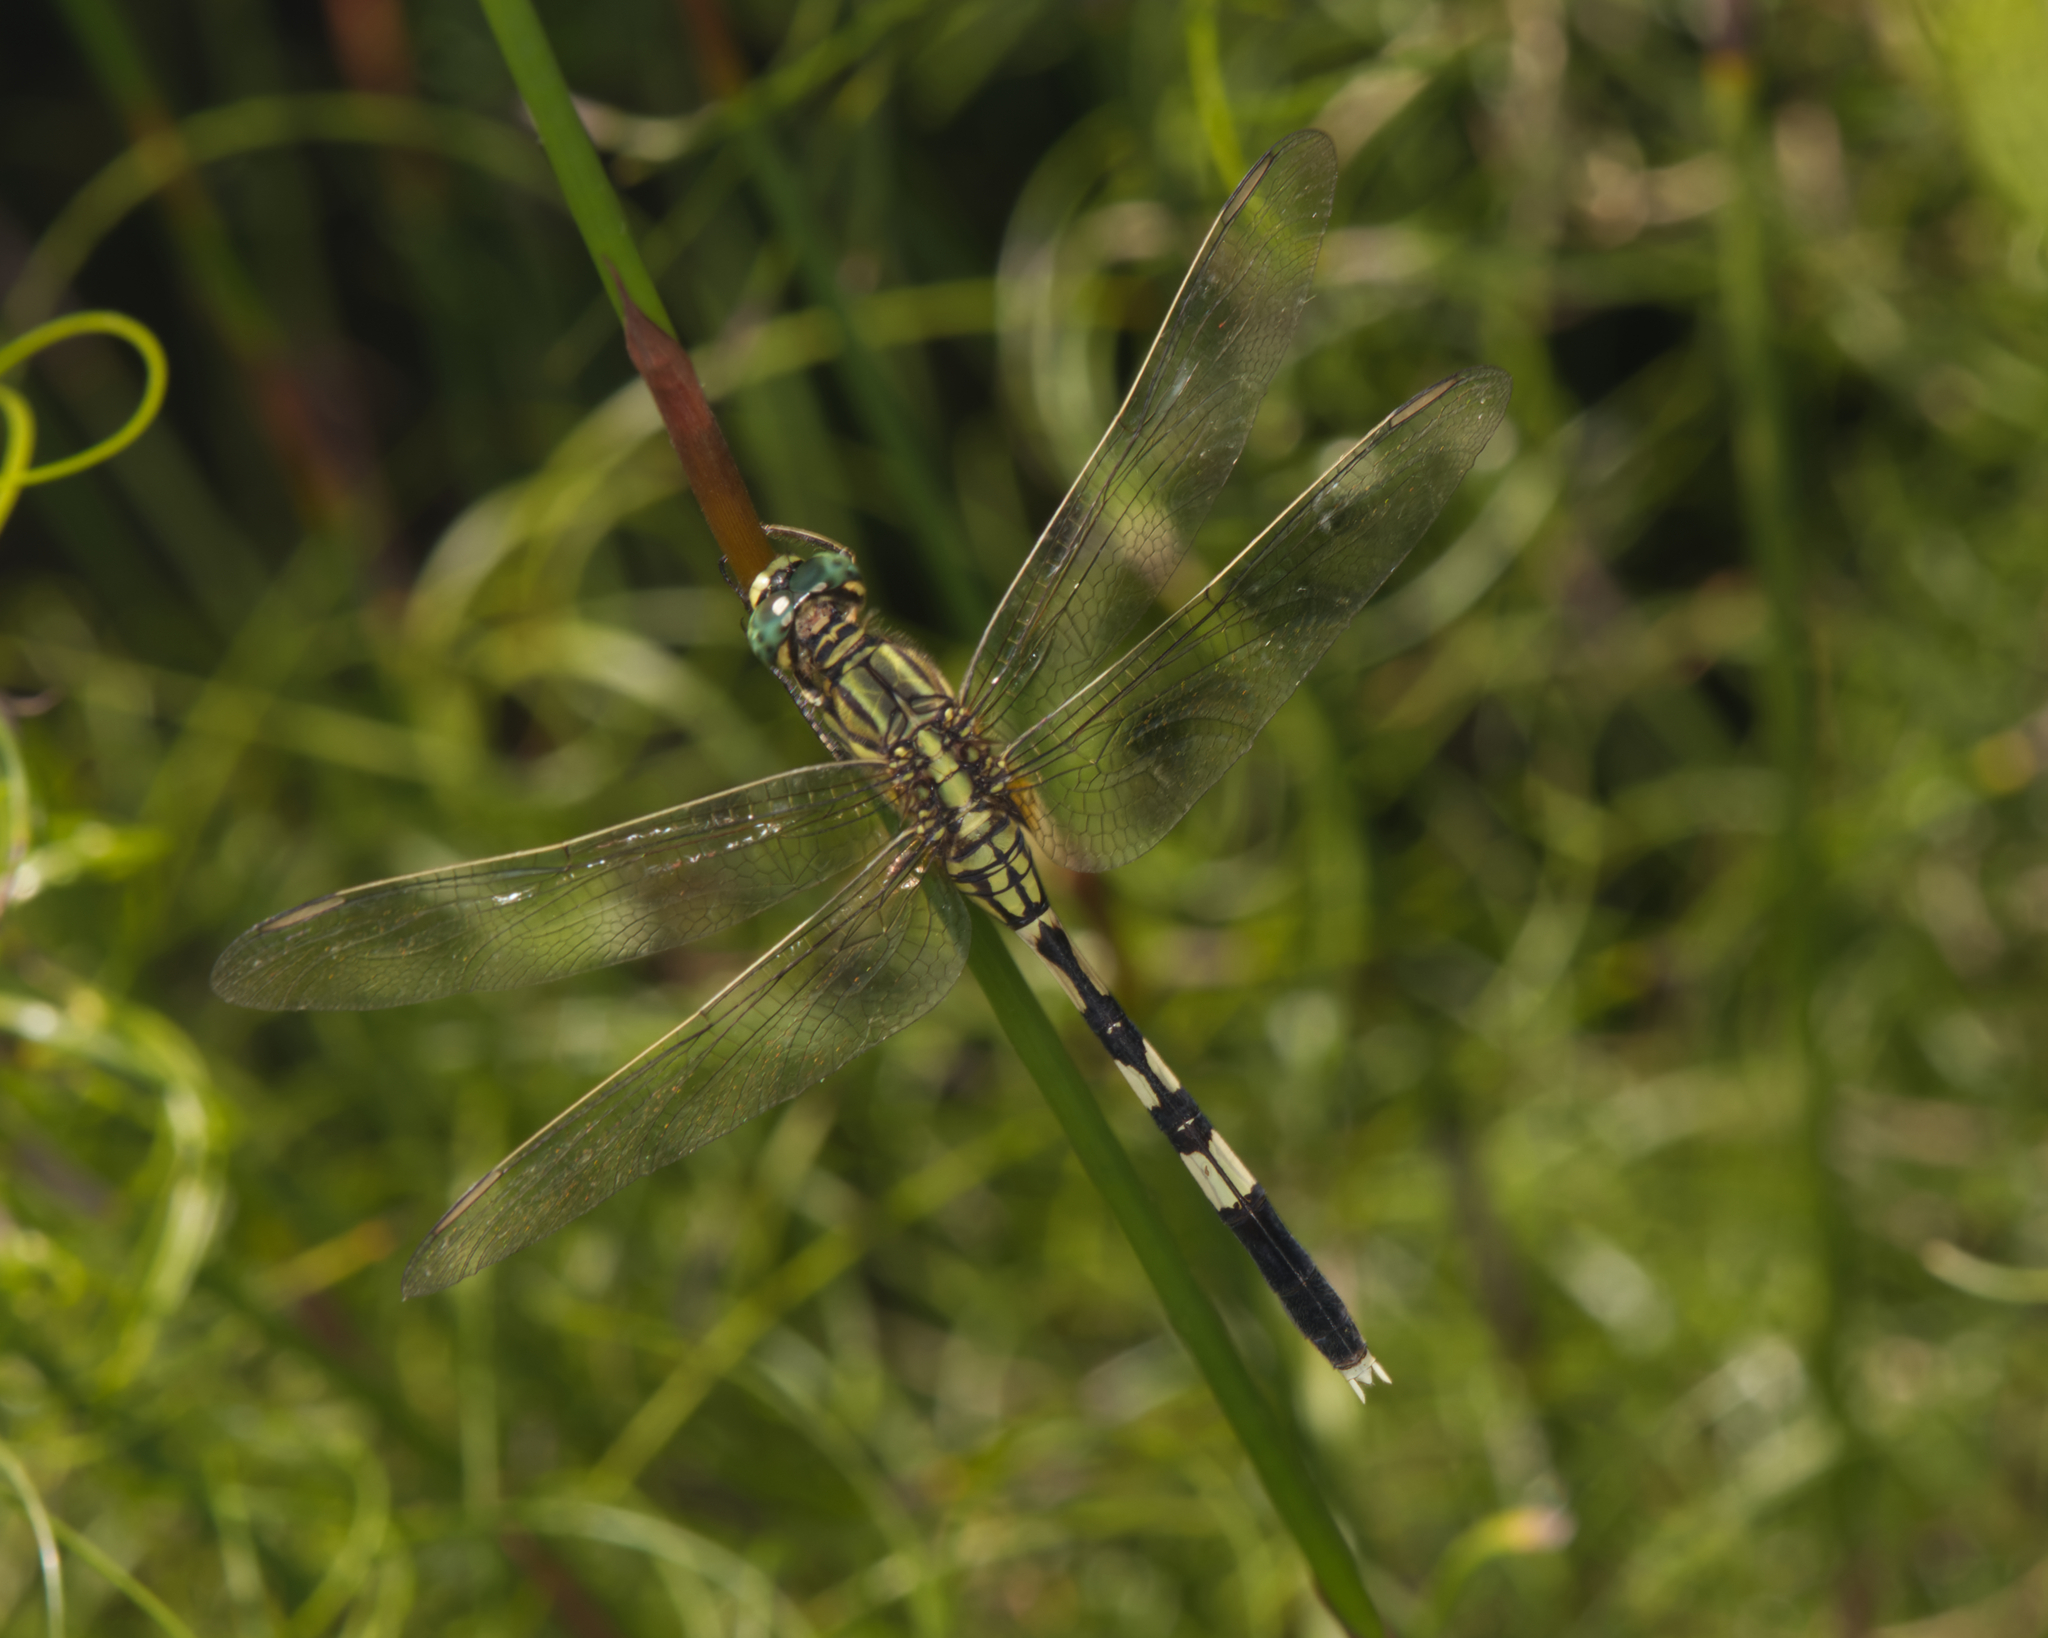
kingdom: Animalia
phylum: Arthropoda
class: Insecta
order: Odonata
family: Libellulidae
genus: Orthetrum
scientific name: Orthetrum sabina
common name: Slender skimmer
